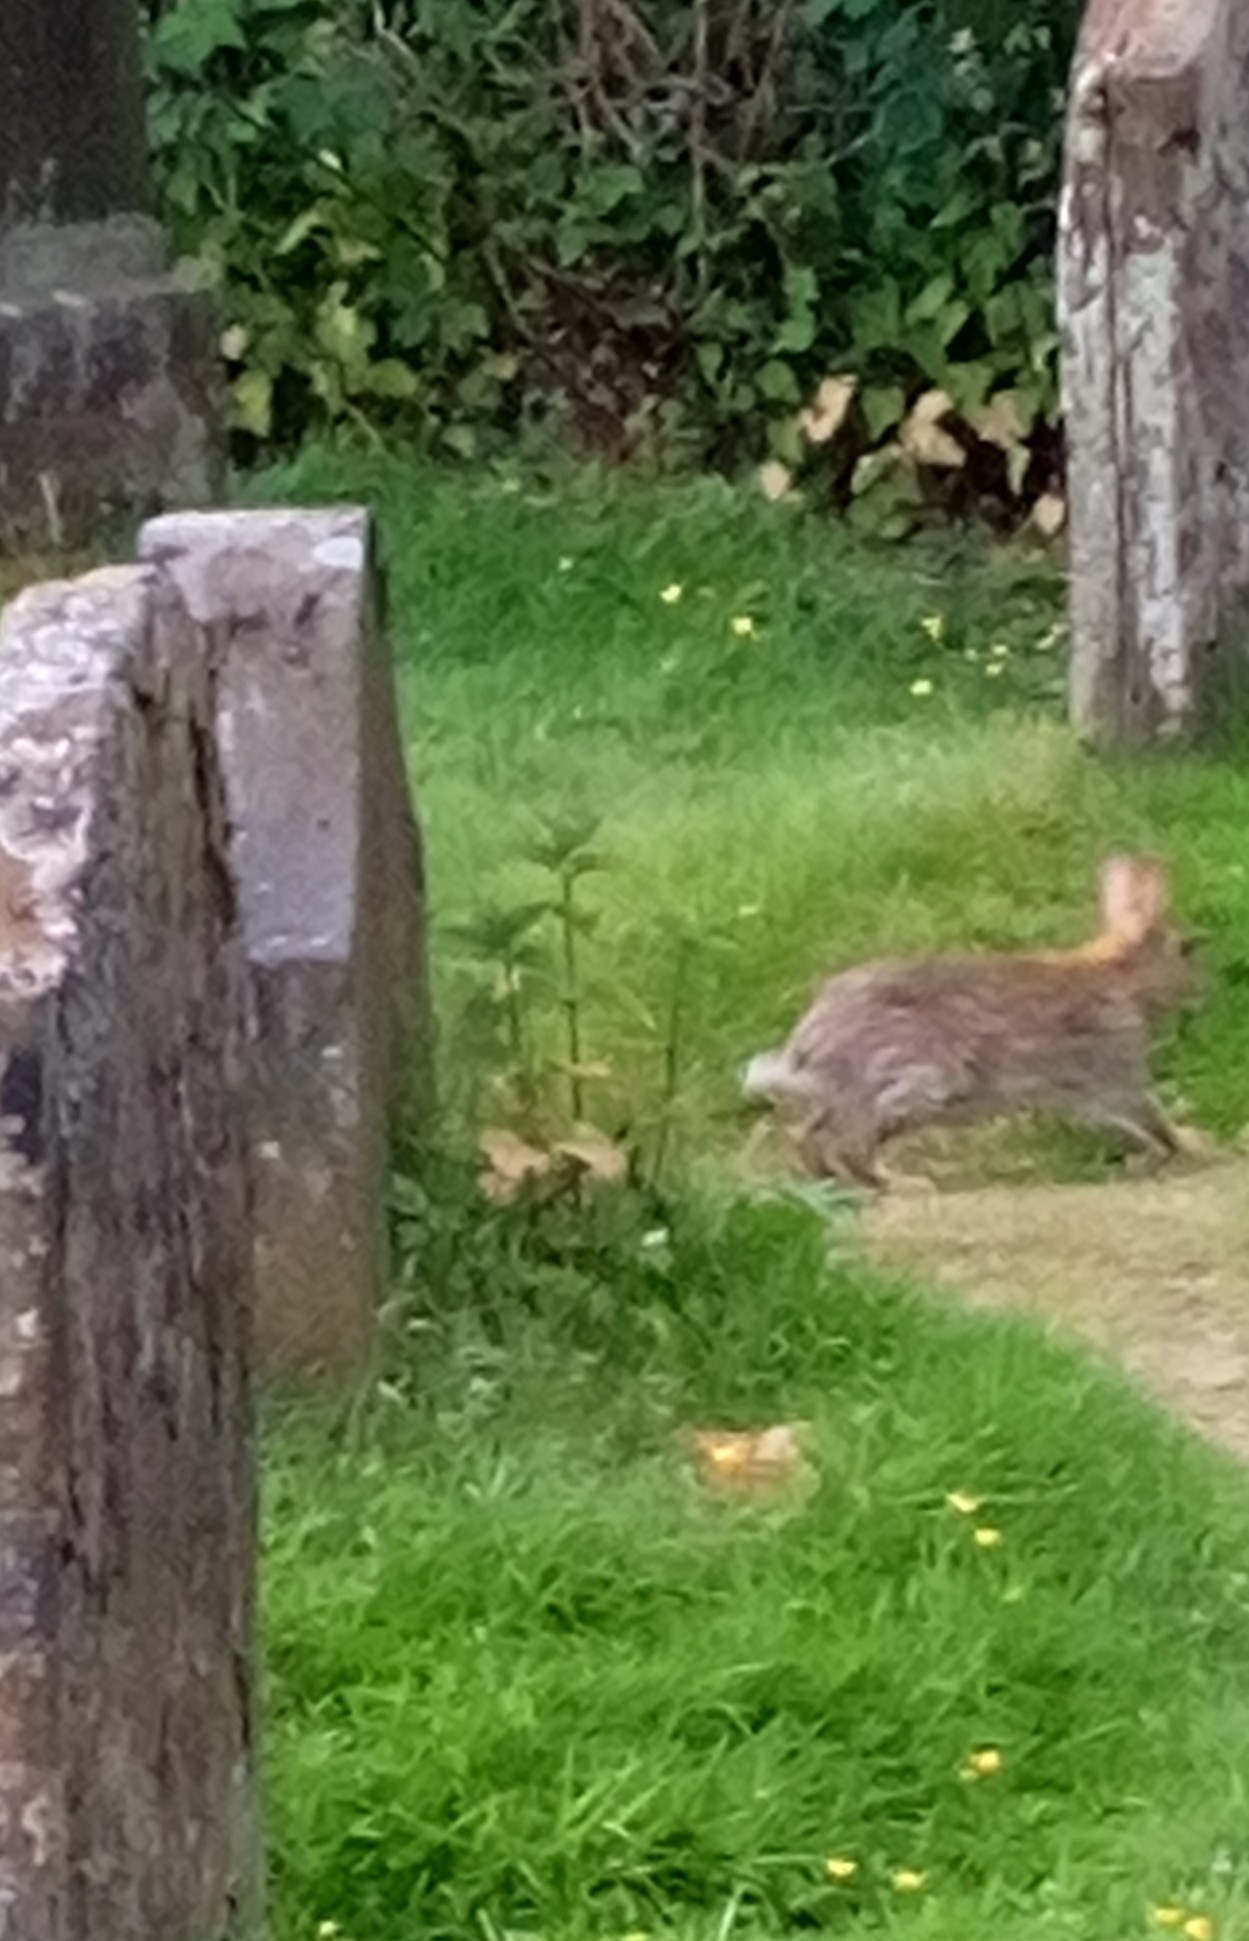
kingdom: Animalia
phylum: Chordata
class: Mammalia
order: Lagomorpha
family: Leporidae
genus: Oryctolagus
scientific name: Oryctolagus cuniculus
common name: European rabbit
